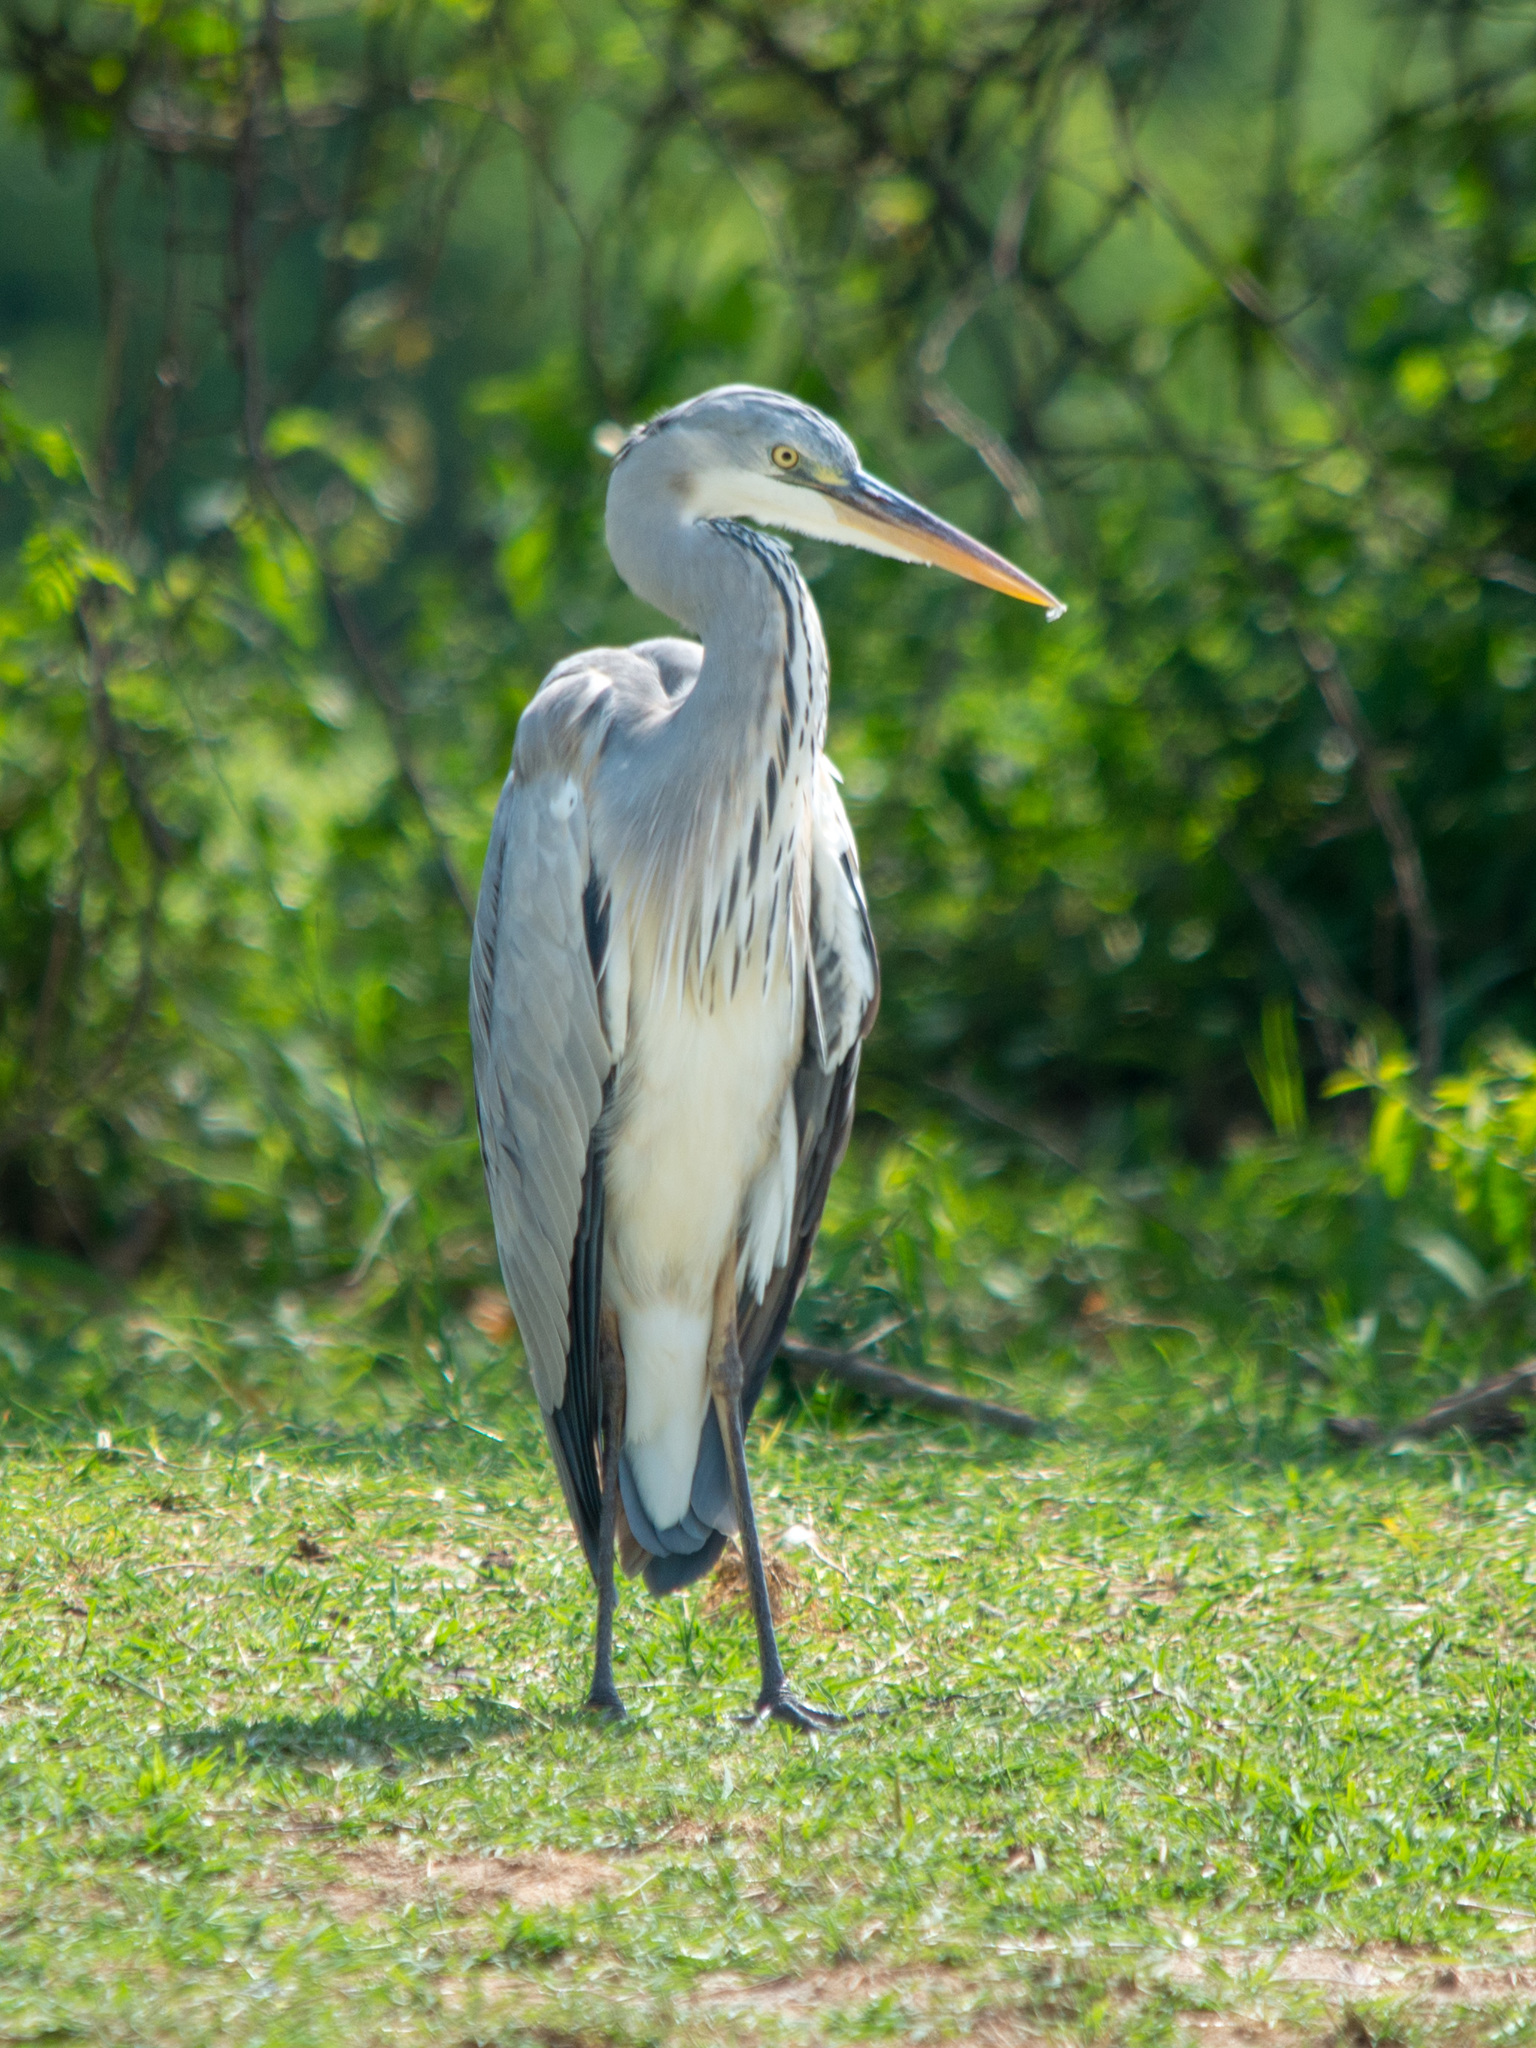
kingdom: Animalia
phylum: Chordata
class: Aves
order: Pelecaniformes
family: Ardeidae
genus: Ardea
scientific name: Ardea cinerea
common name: Grey heron
